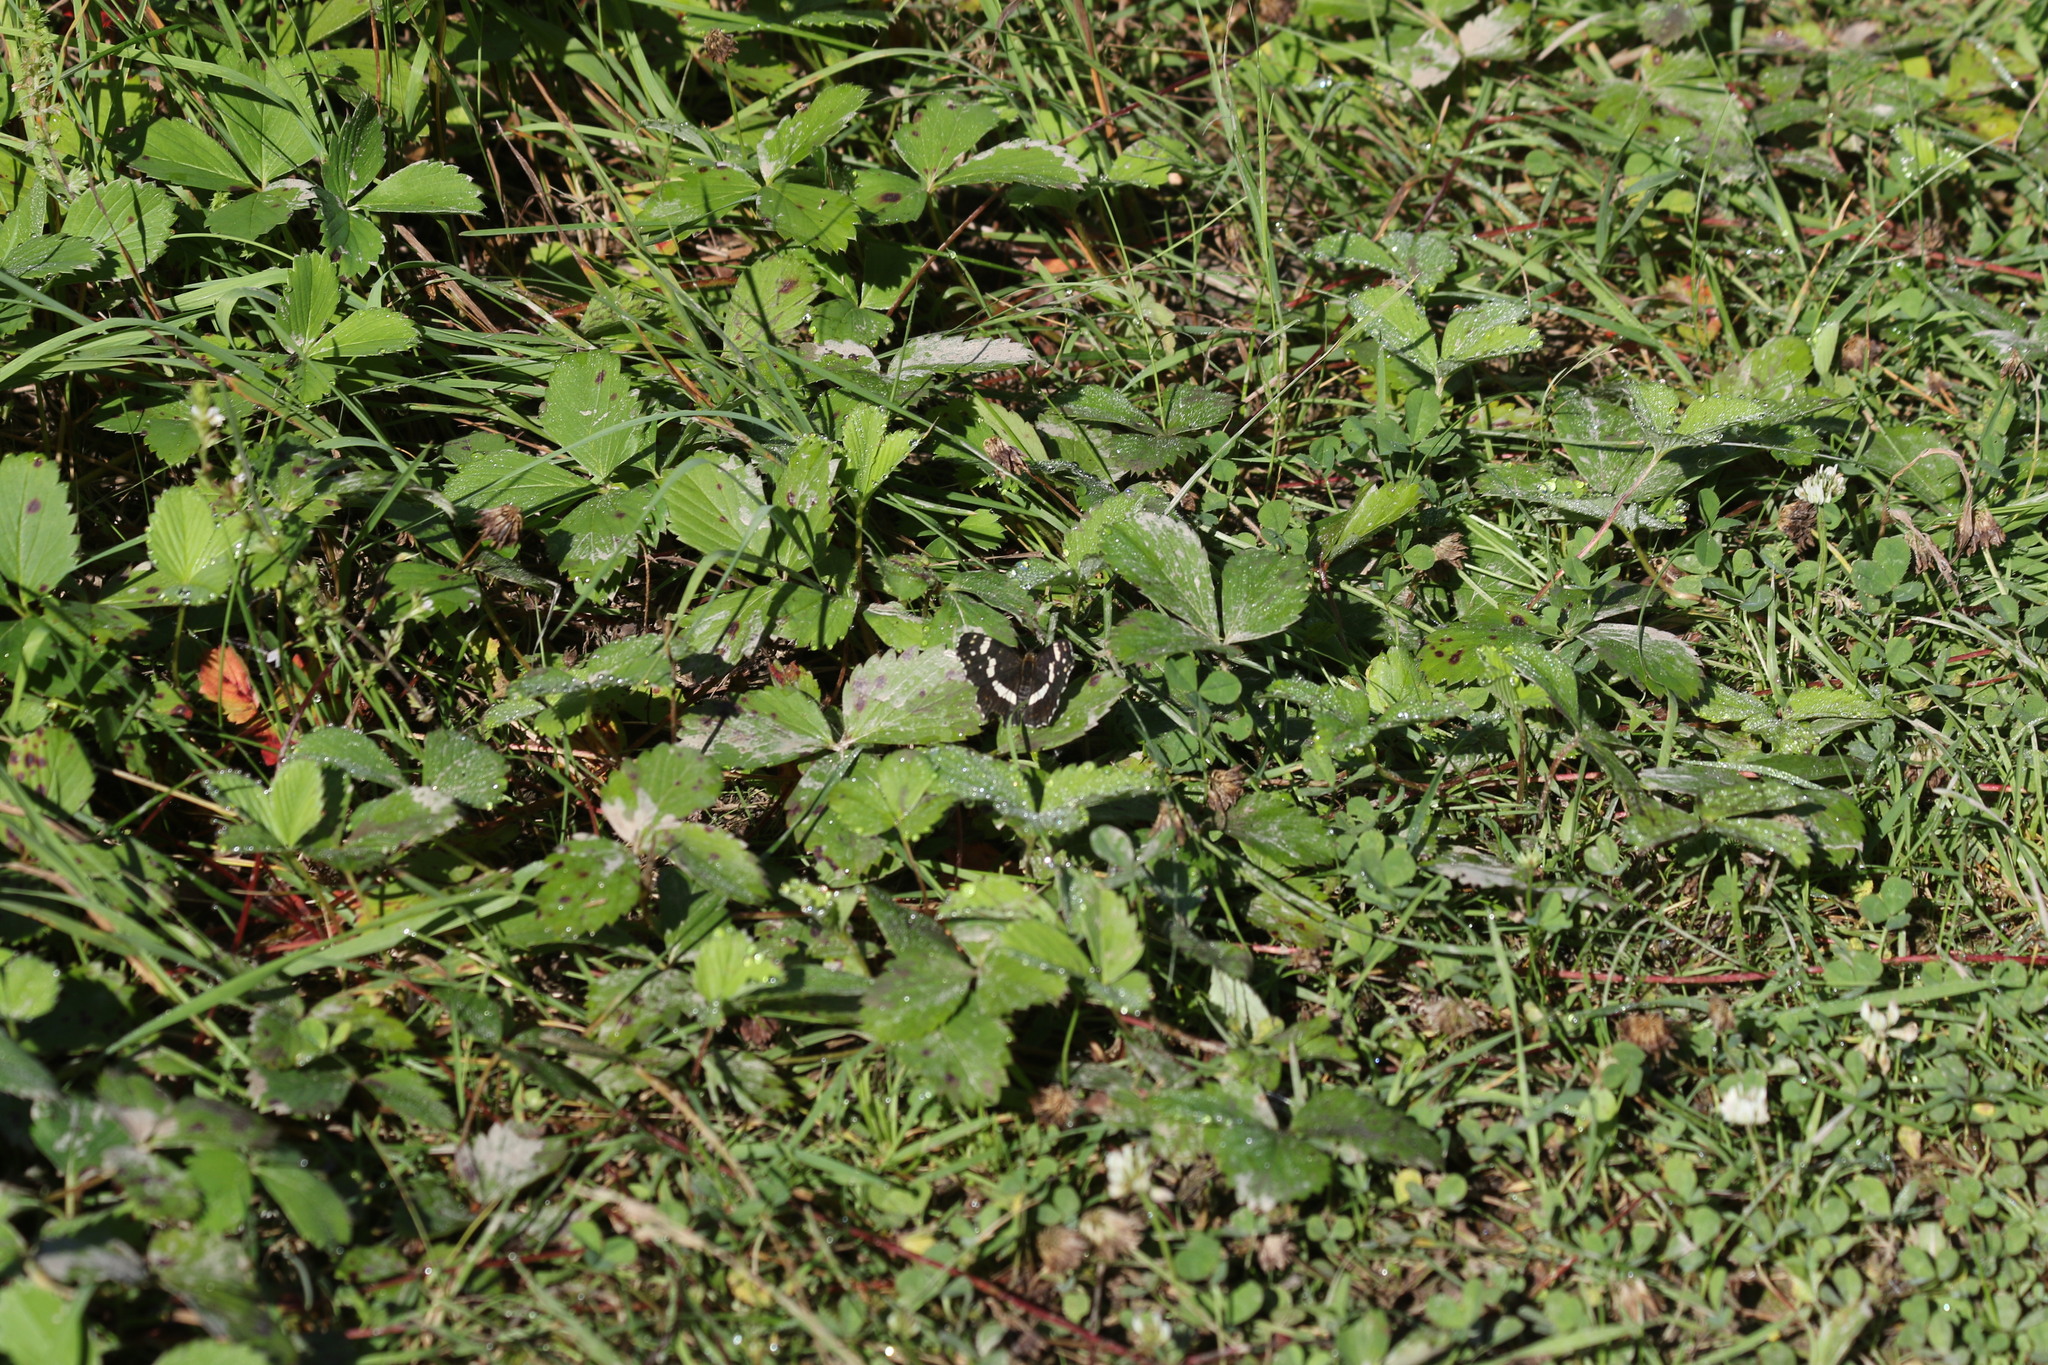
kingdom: Animalia
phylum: Arthropoda
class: Insecta
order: Lepidoptera
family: Nymphalidae
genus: Araschnia
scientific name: Araschnia levana
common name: Map butterfly
